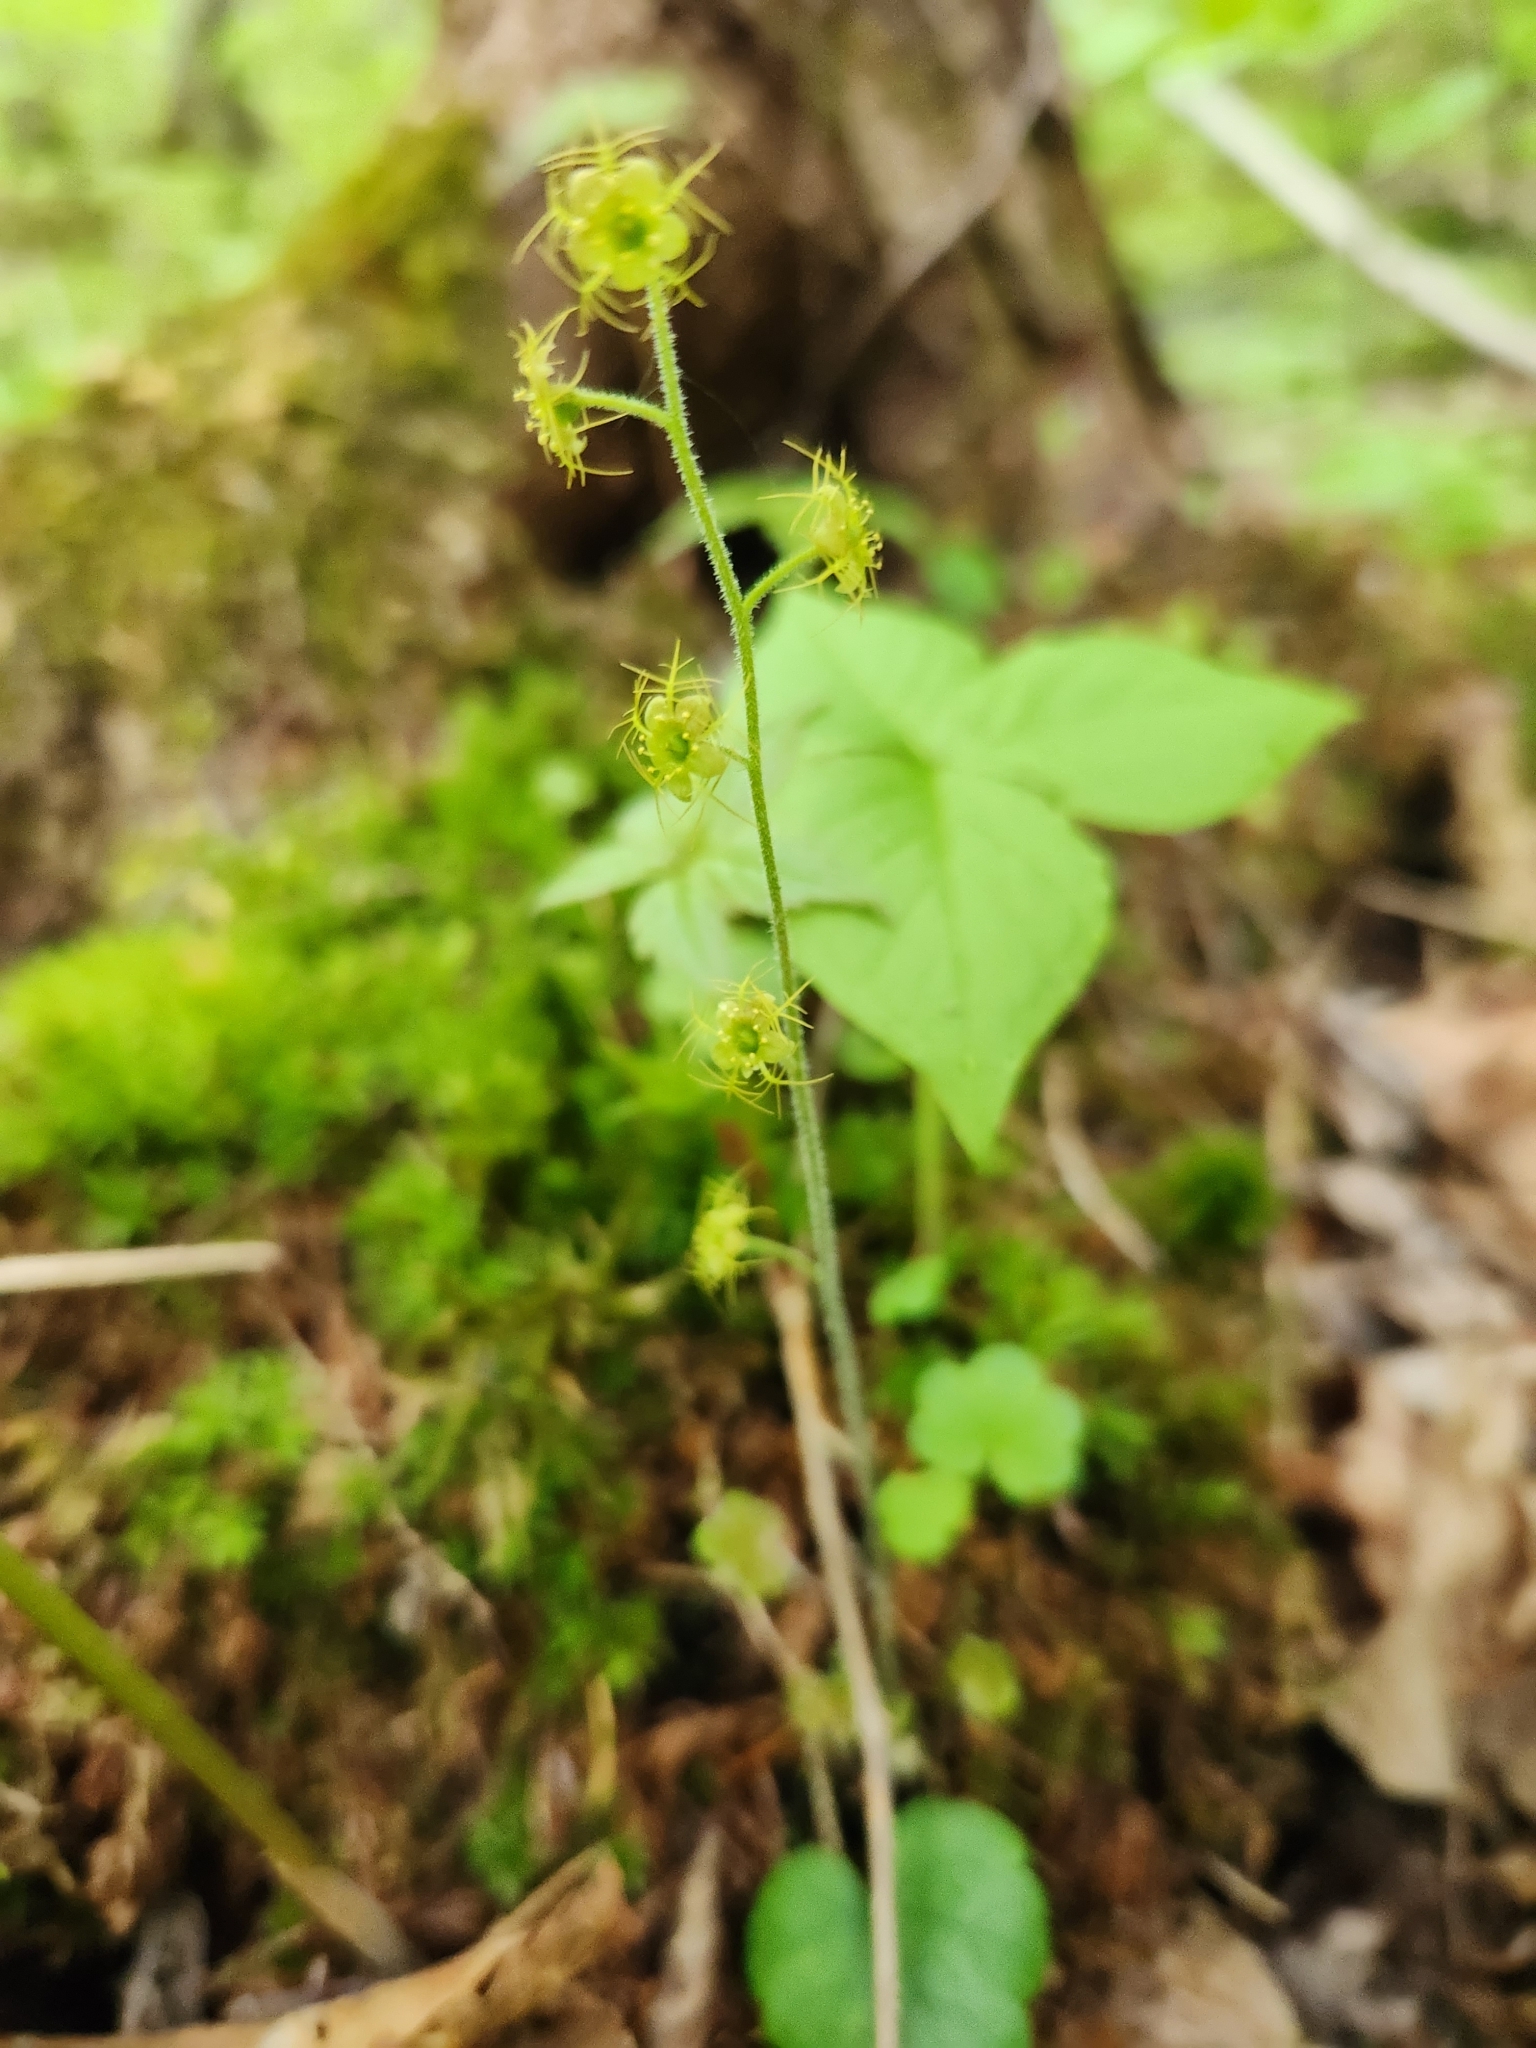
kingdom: Plantae
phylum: Tracheophyta
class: Magnoliopsida
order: Saxifragales
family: Saxifragaceae
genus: Mitella
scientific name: Mitella nuda
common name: Bare-stemmed bishop's-cap
